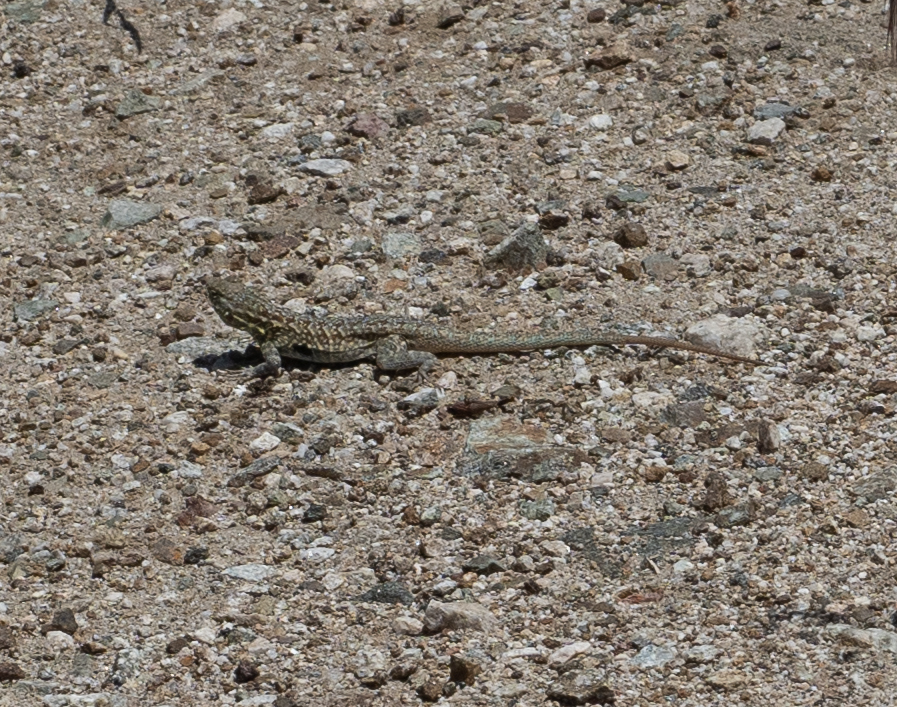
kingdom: Animalia
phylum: Chordata
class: Squamata
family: Phrynosomatidae
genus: Uta
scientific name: Uta stansburiana
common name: Side-blotched lizard
